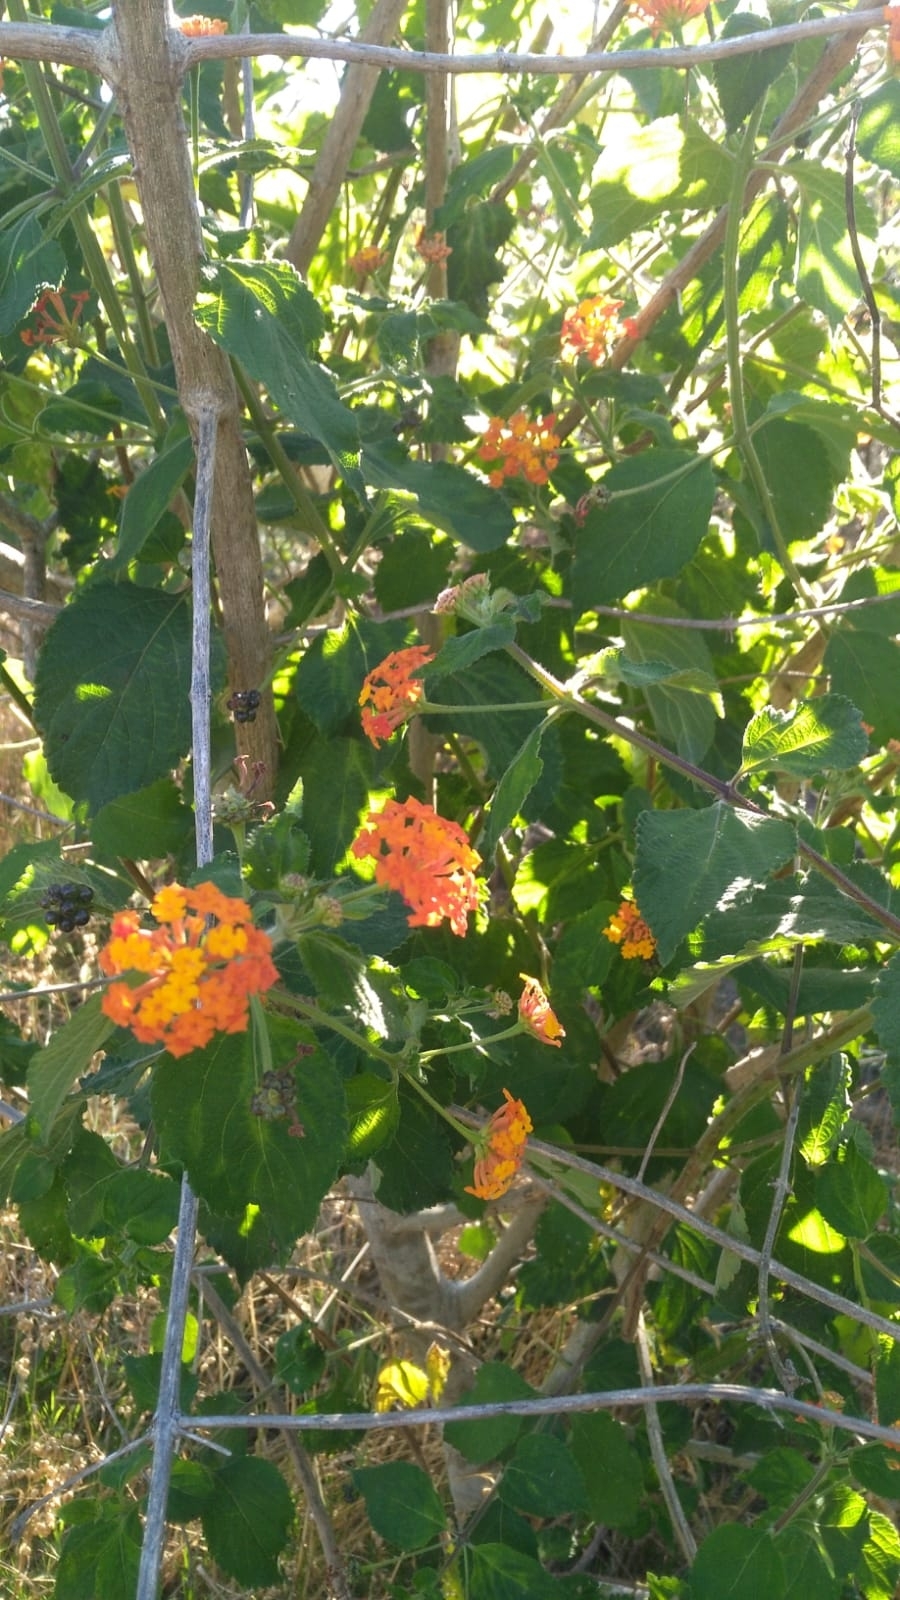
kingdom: Plantae
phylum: Tracheophyta
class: Magnoliopsida
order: Lamiales
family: Verbenaceae
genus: Lantana
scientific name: Lantana camara
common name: Lantana
